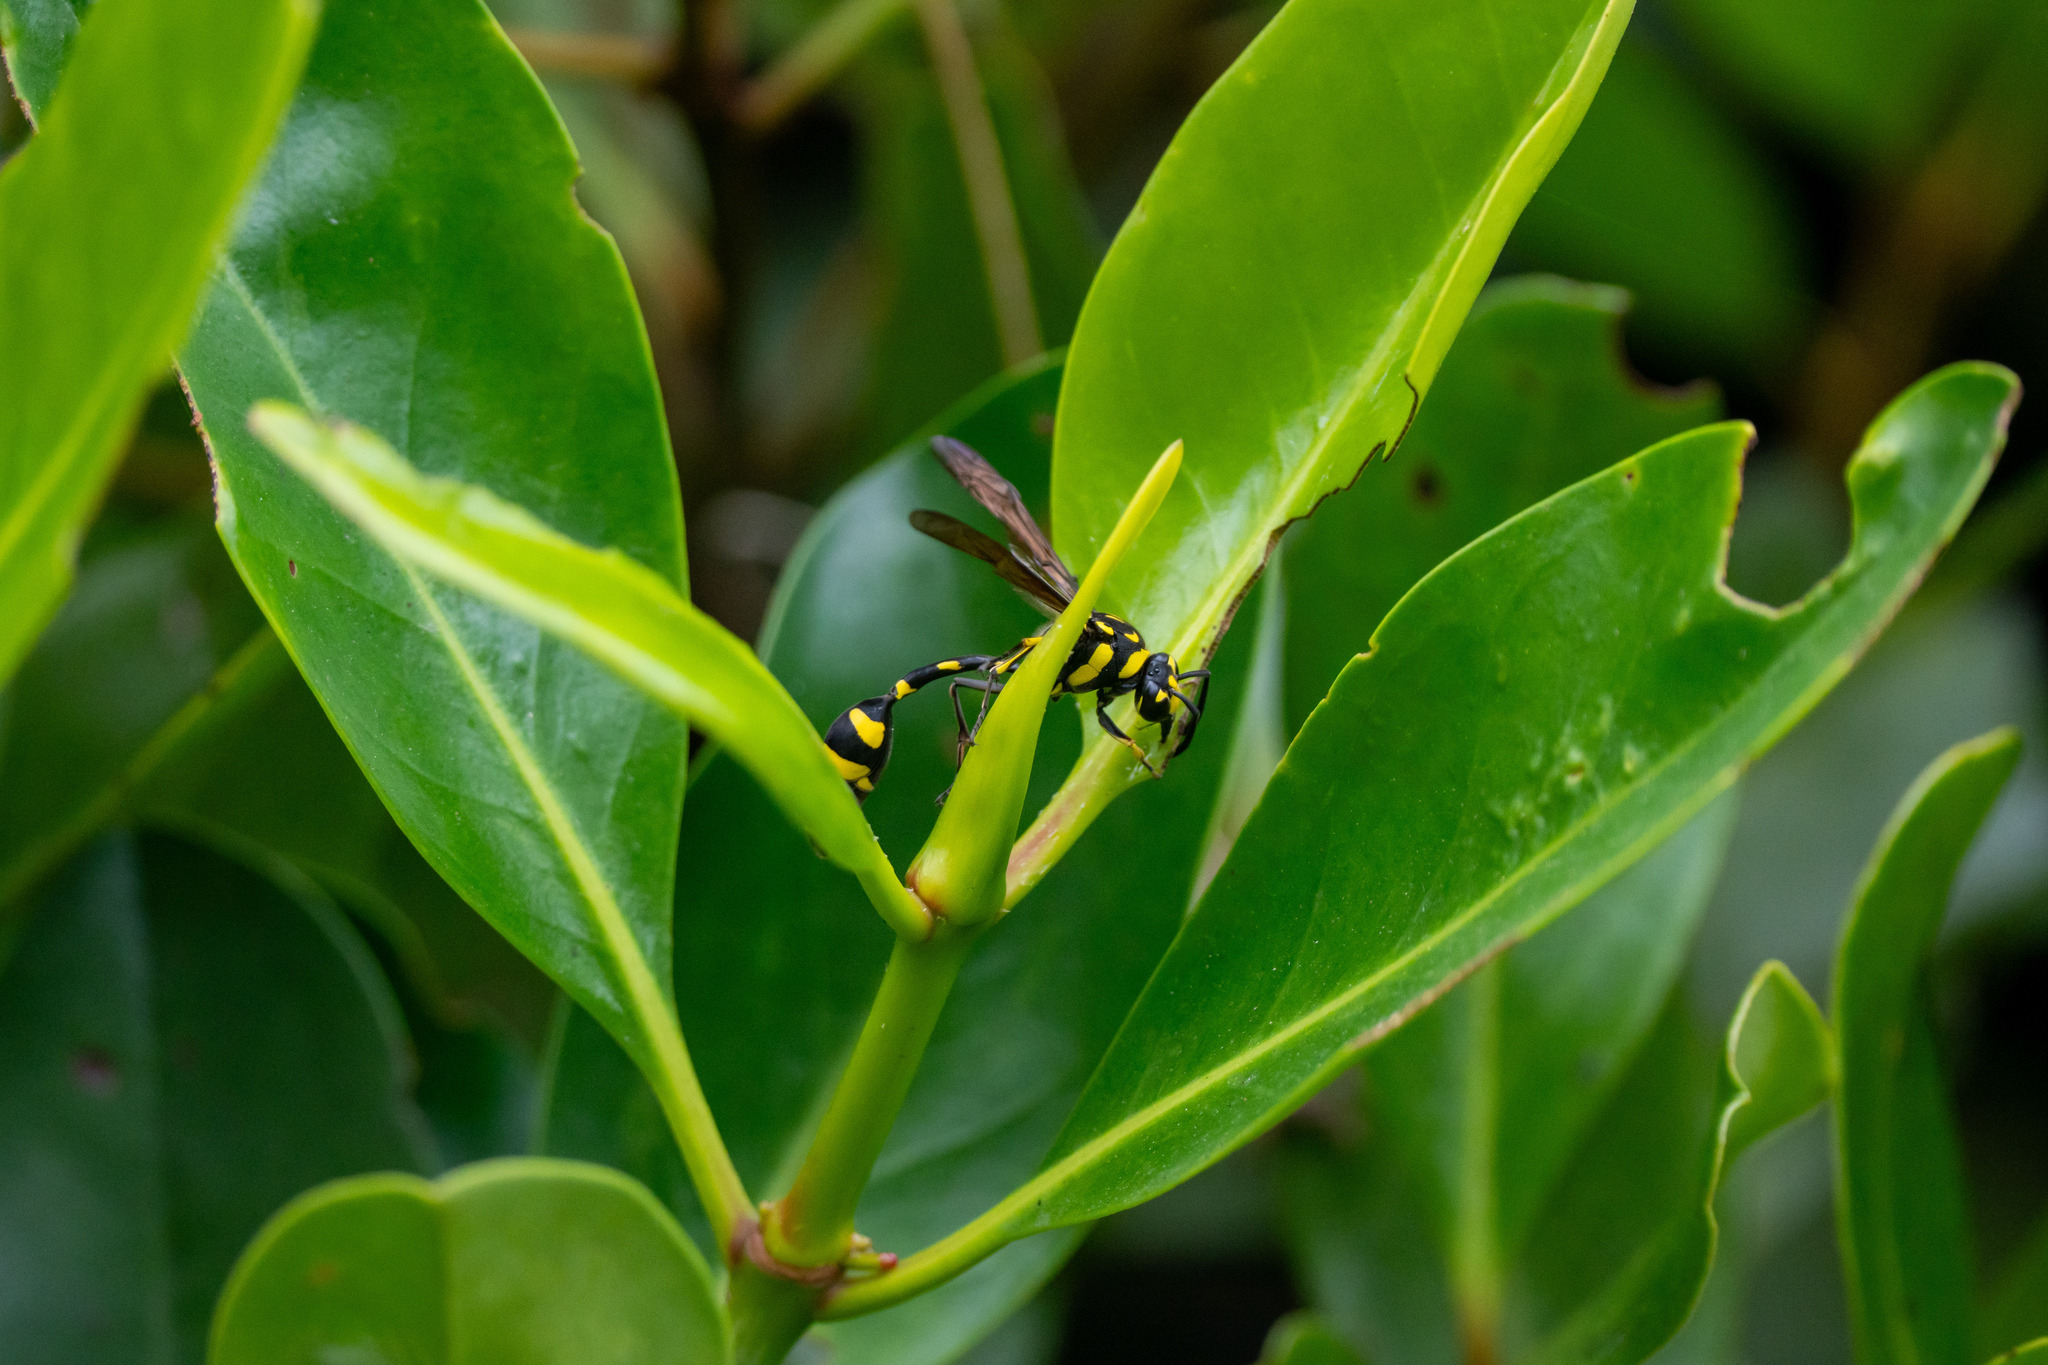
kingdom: Animalia
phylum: Arthropoda
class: Insecta
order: Hymenoptera
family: Eumenidae
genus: Phimenes
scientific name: Phimenes flavopictus
